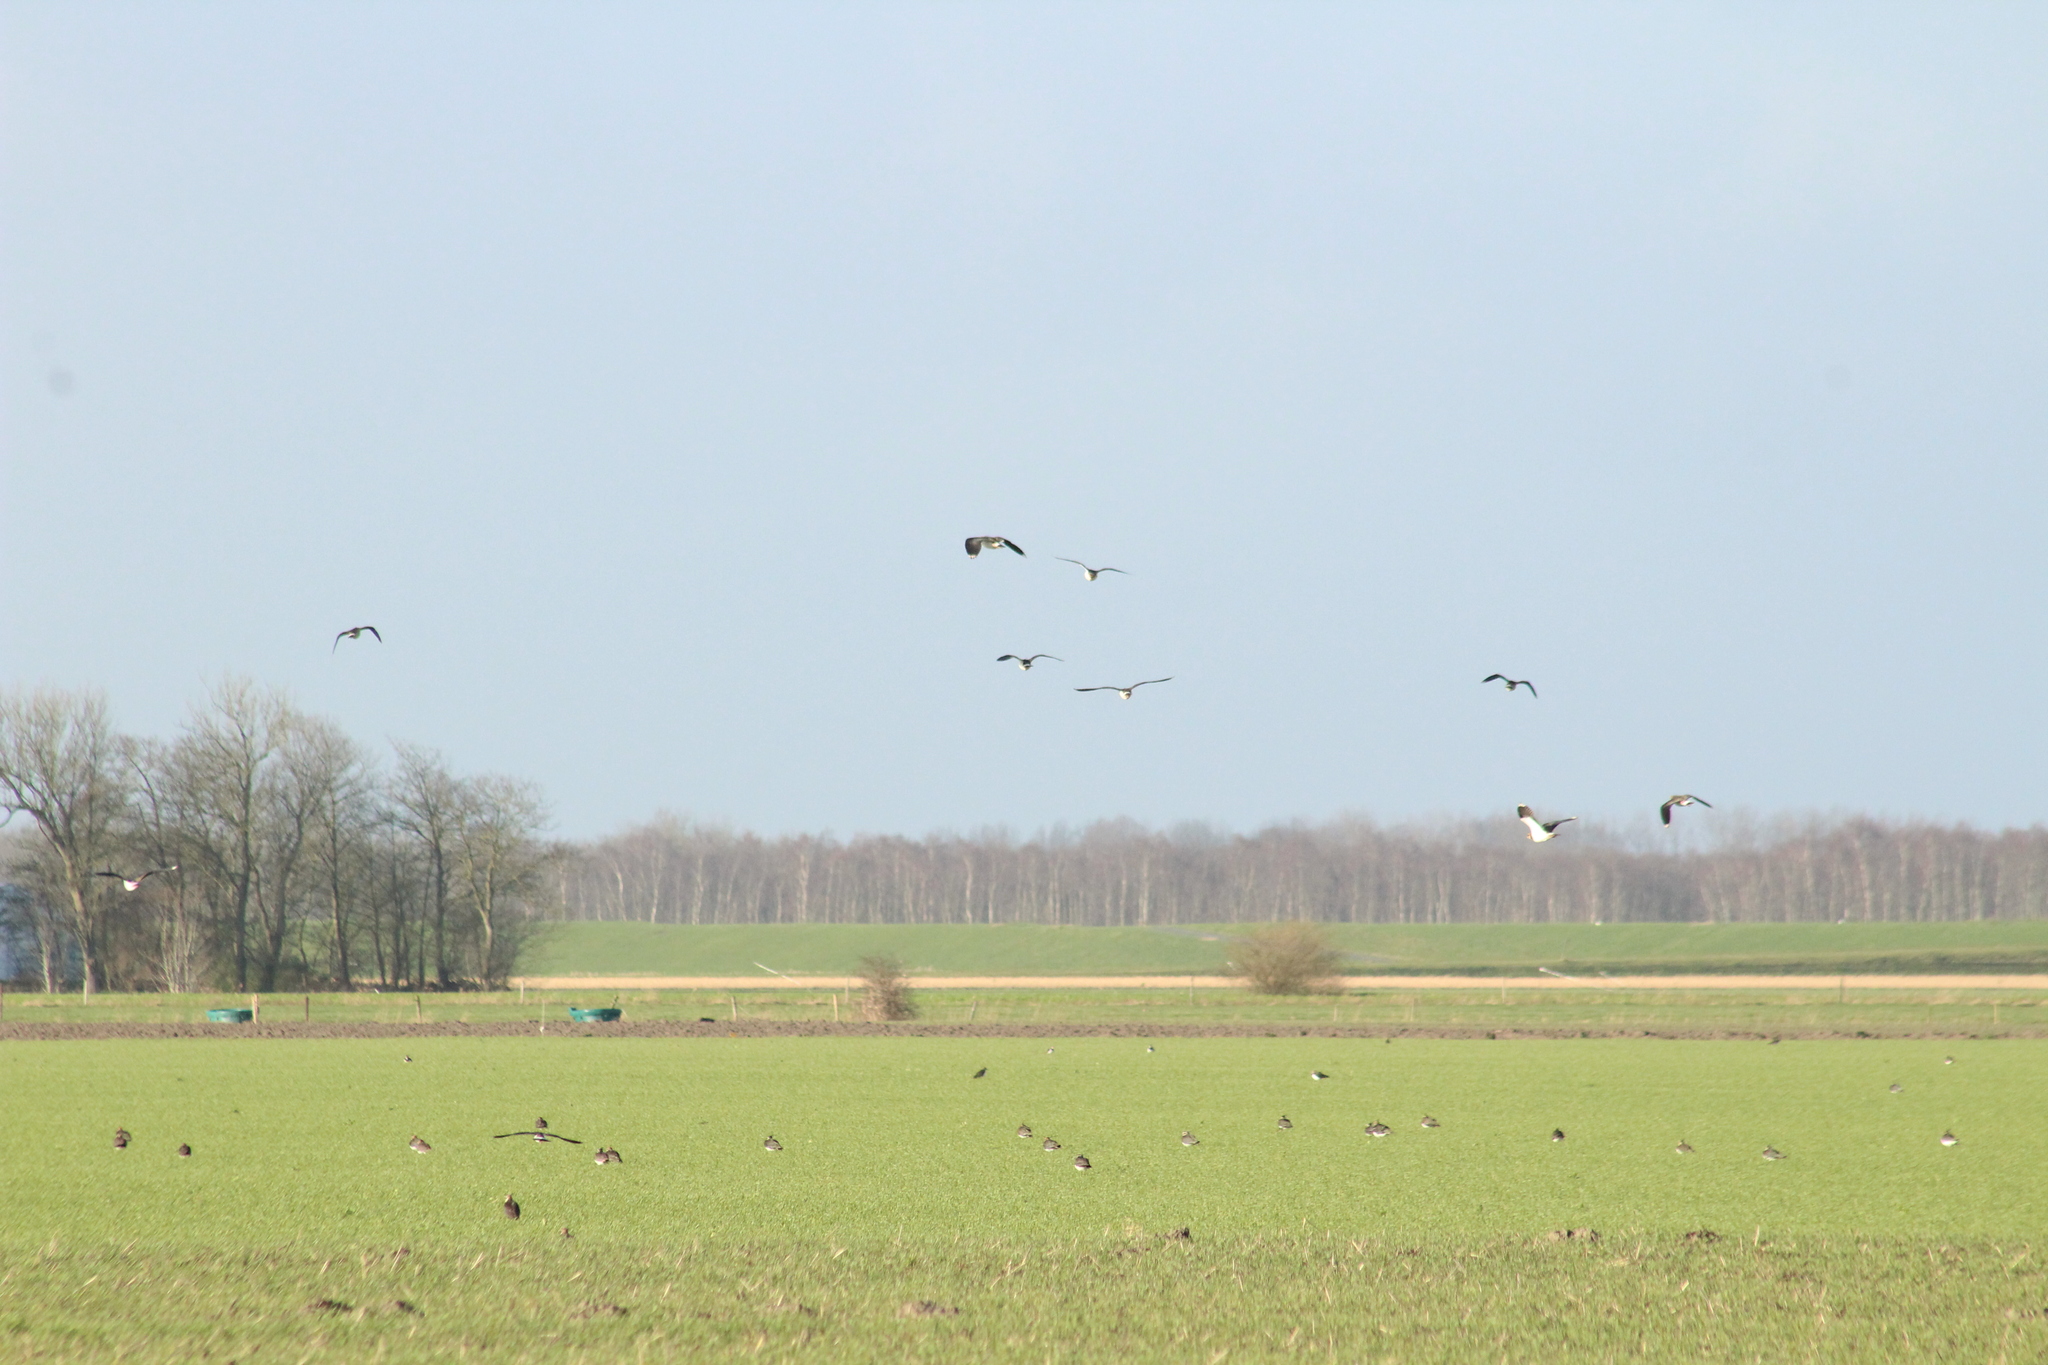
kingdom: Animalia
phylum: Chordata
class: Aves
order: Charadriiformes
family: Charadriidae
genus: Vanellus
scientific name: Vanellus vanellus
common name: Northern lapwing
